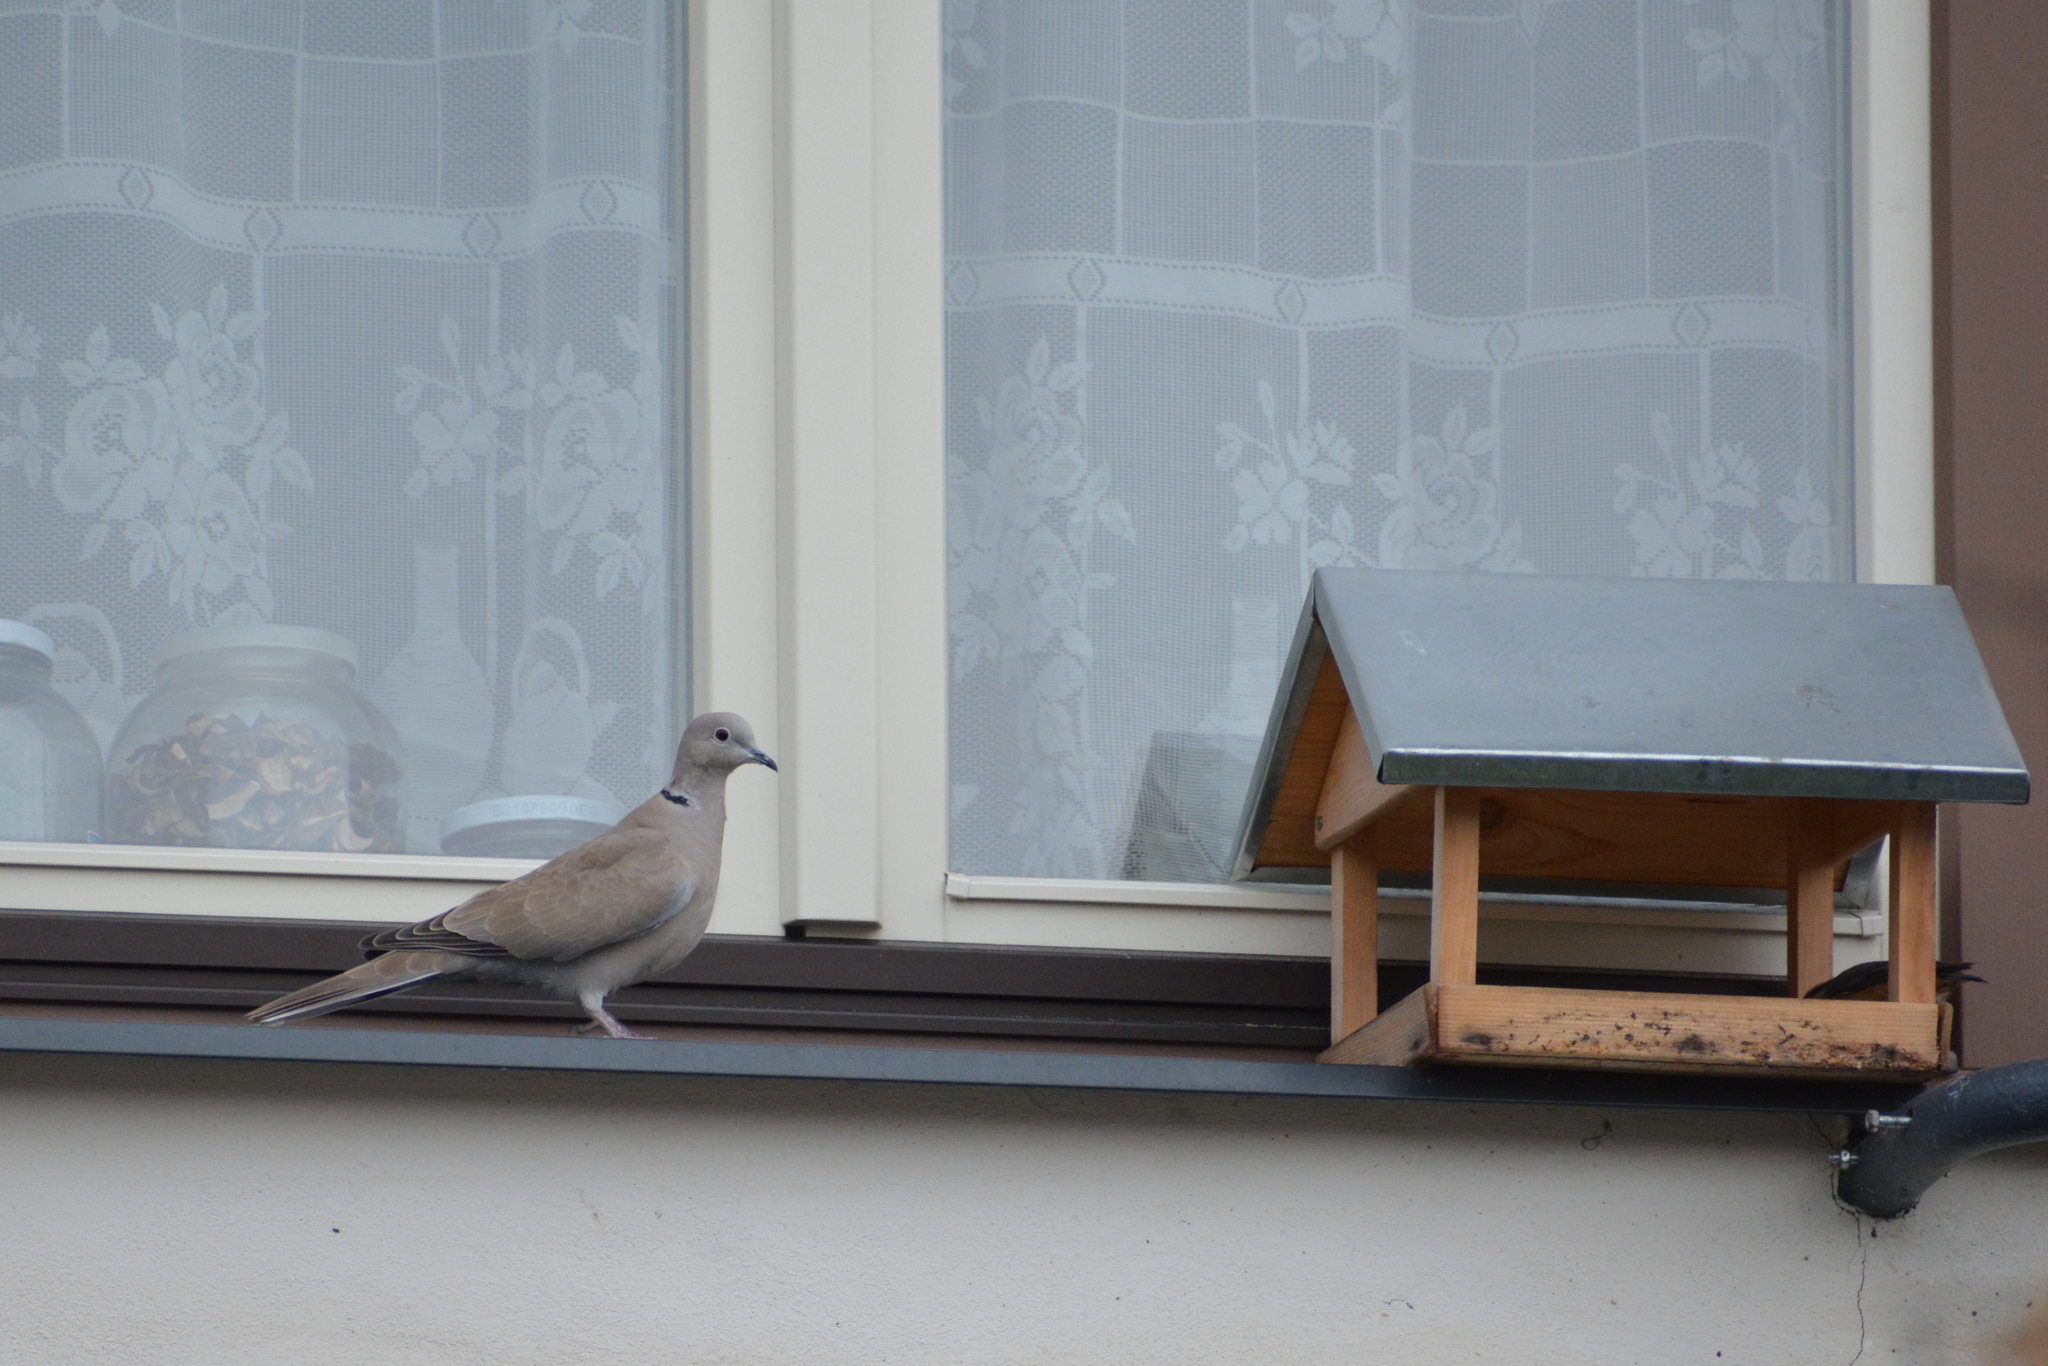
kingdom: Animalia
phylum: Chordata
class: Aves
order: Columbiformes
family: Columbidae
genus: Streptopelia
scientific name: Streptopelia decaocto
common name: Eurasian collared dove
